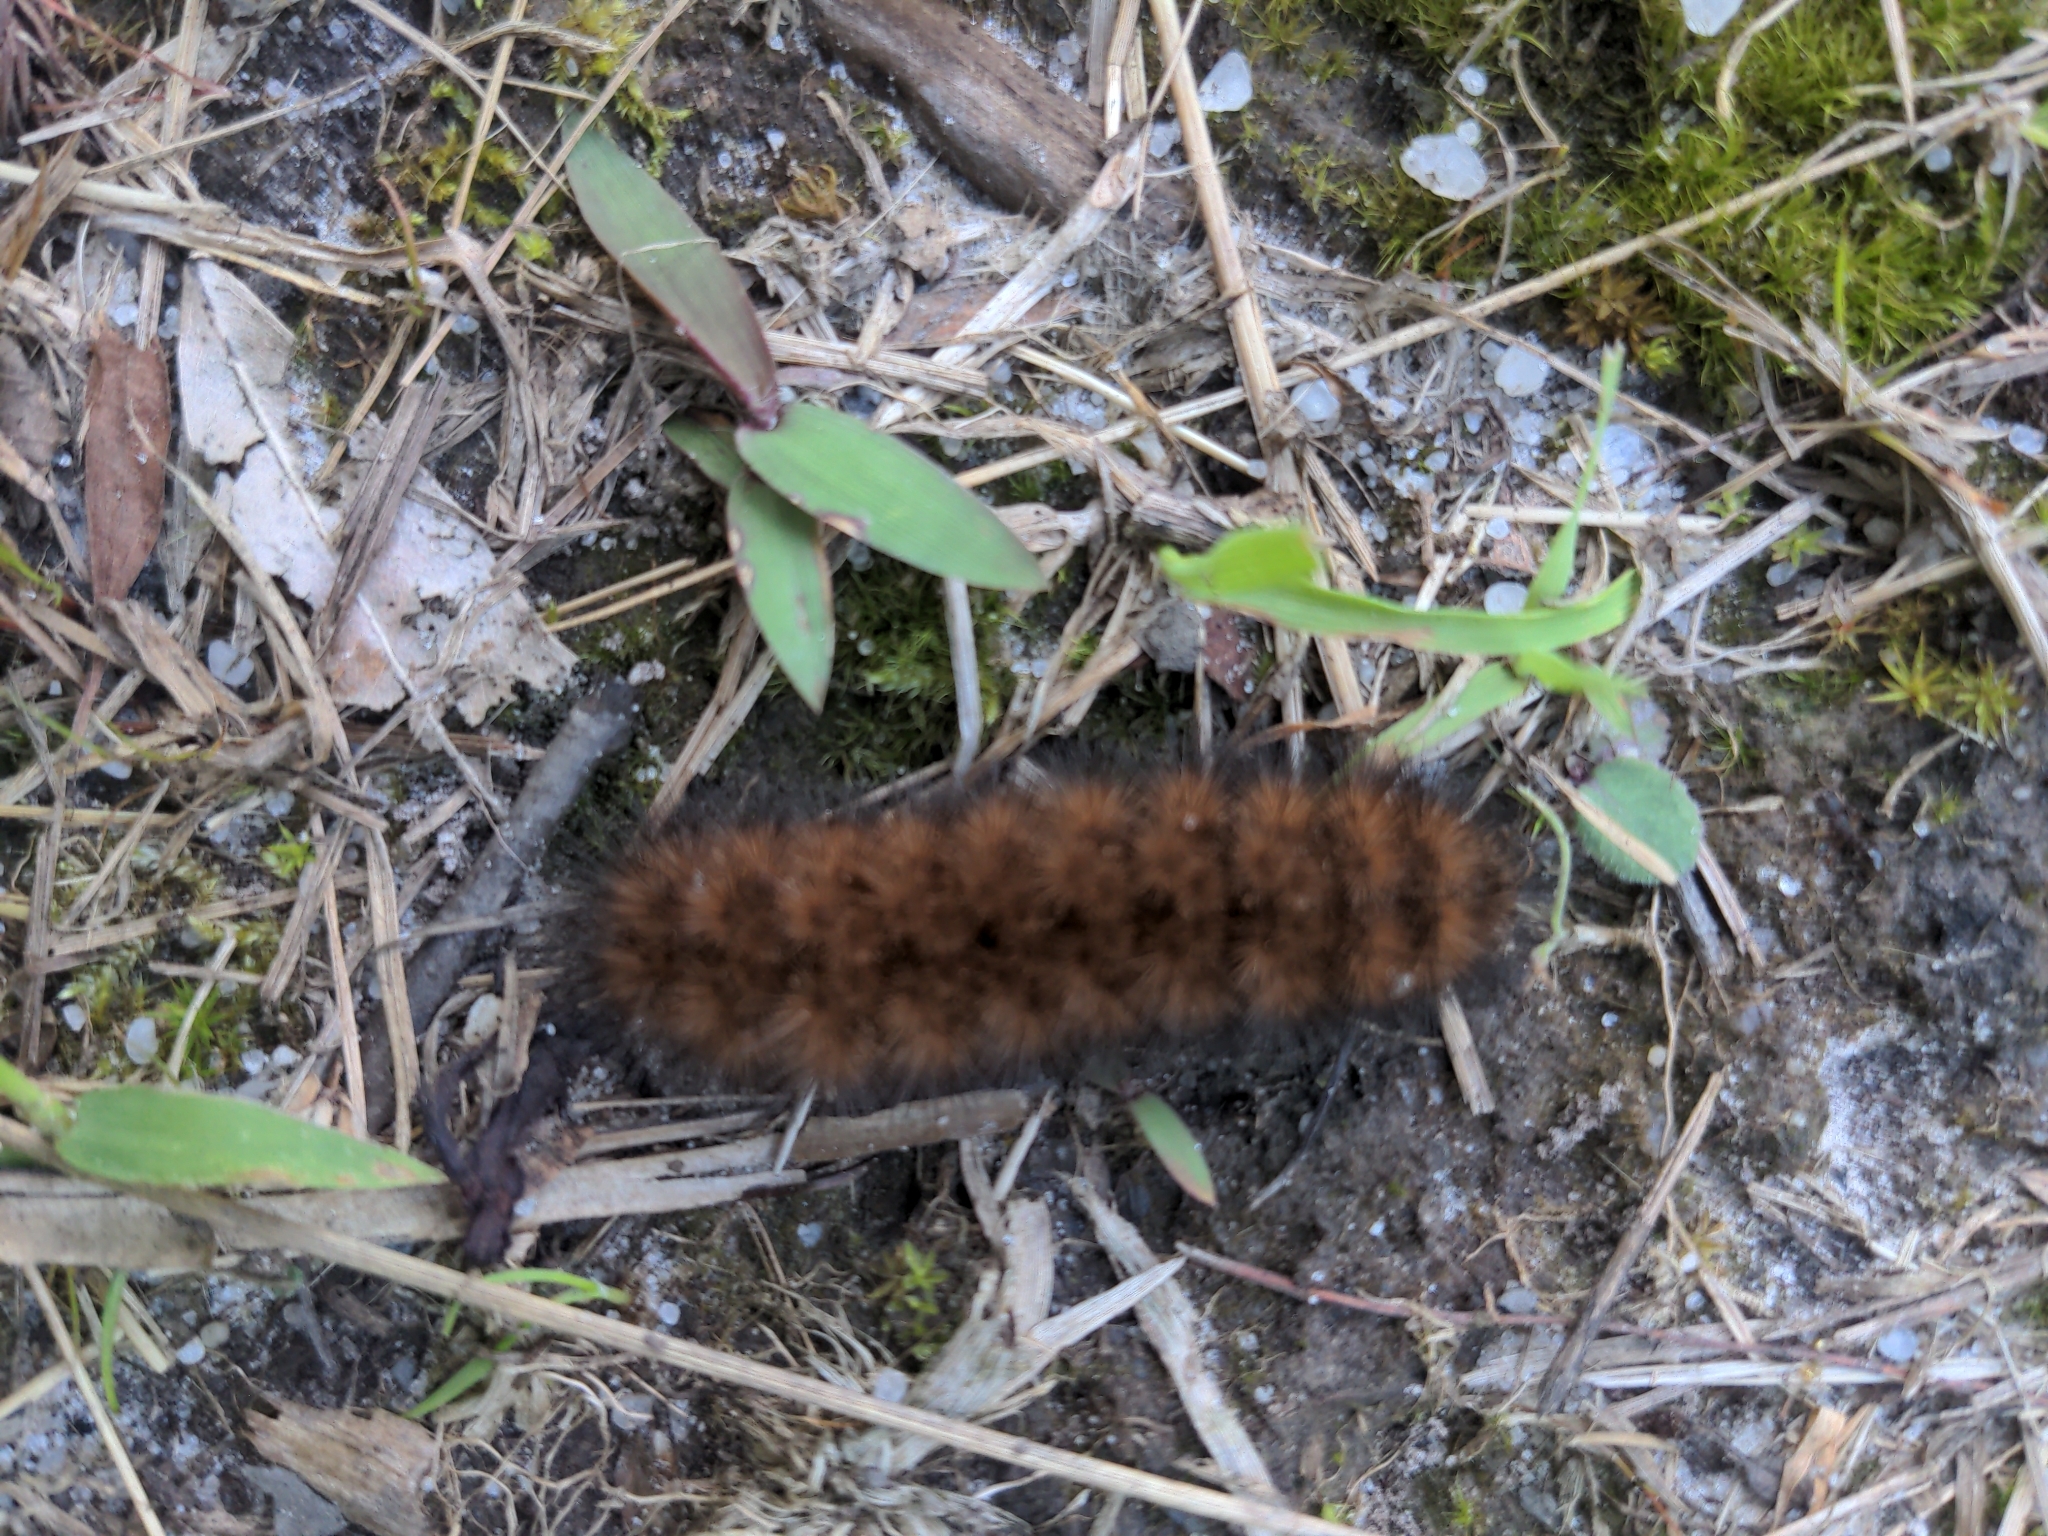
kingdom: Animalia
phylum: Arthropoda
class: Insecta
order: Lepidoptera
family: Erebidae
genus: Pyrrharctia
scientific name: Pyrrharctia isabella
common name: Isabella tiger moth
